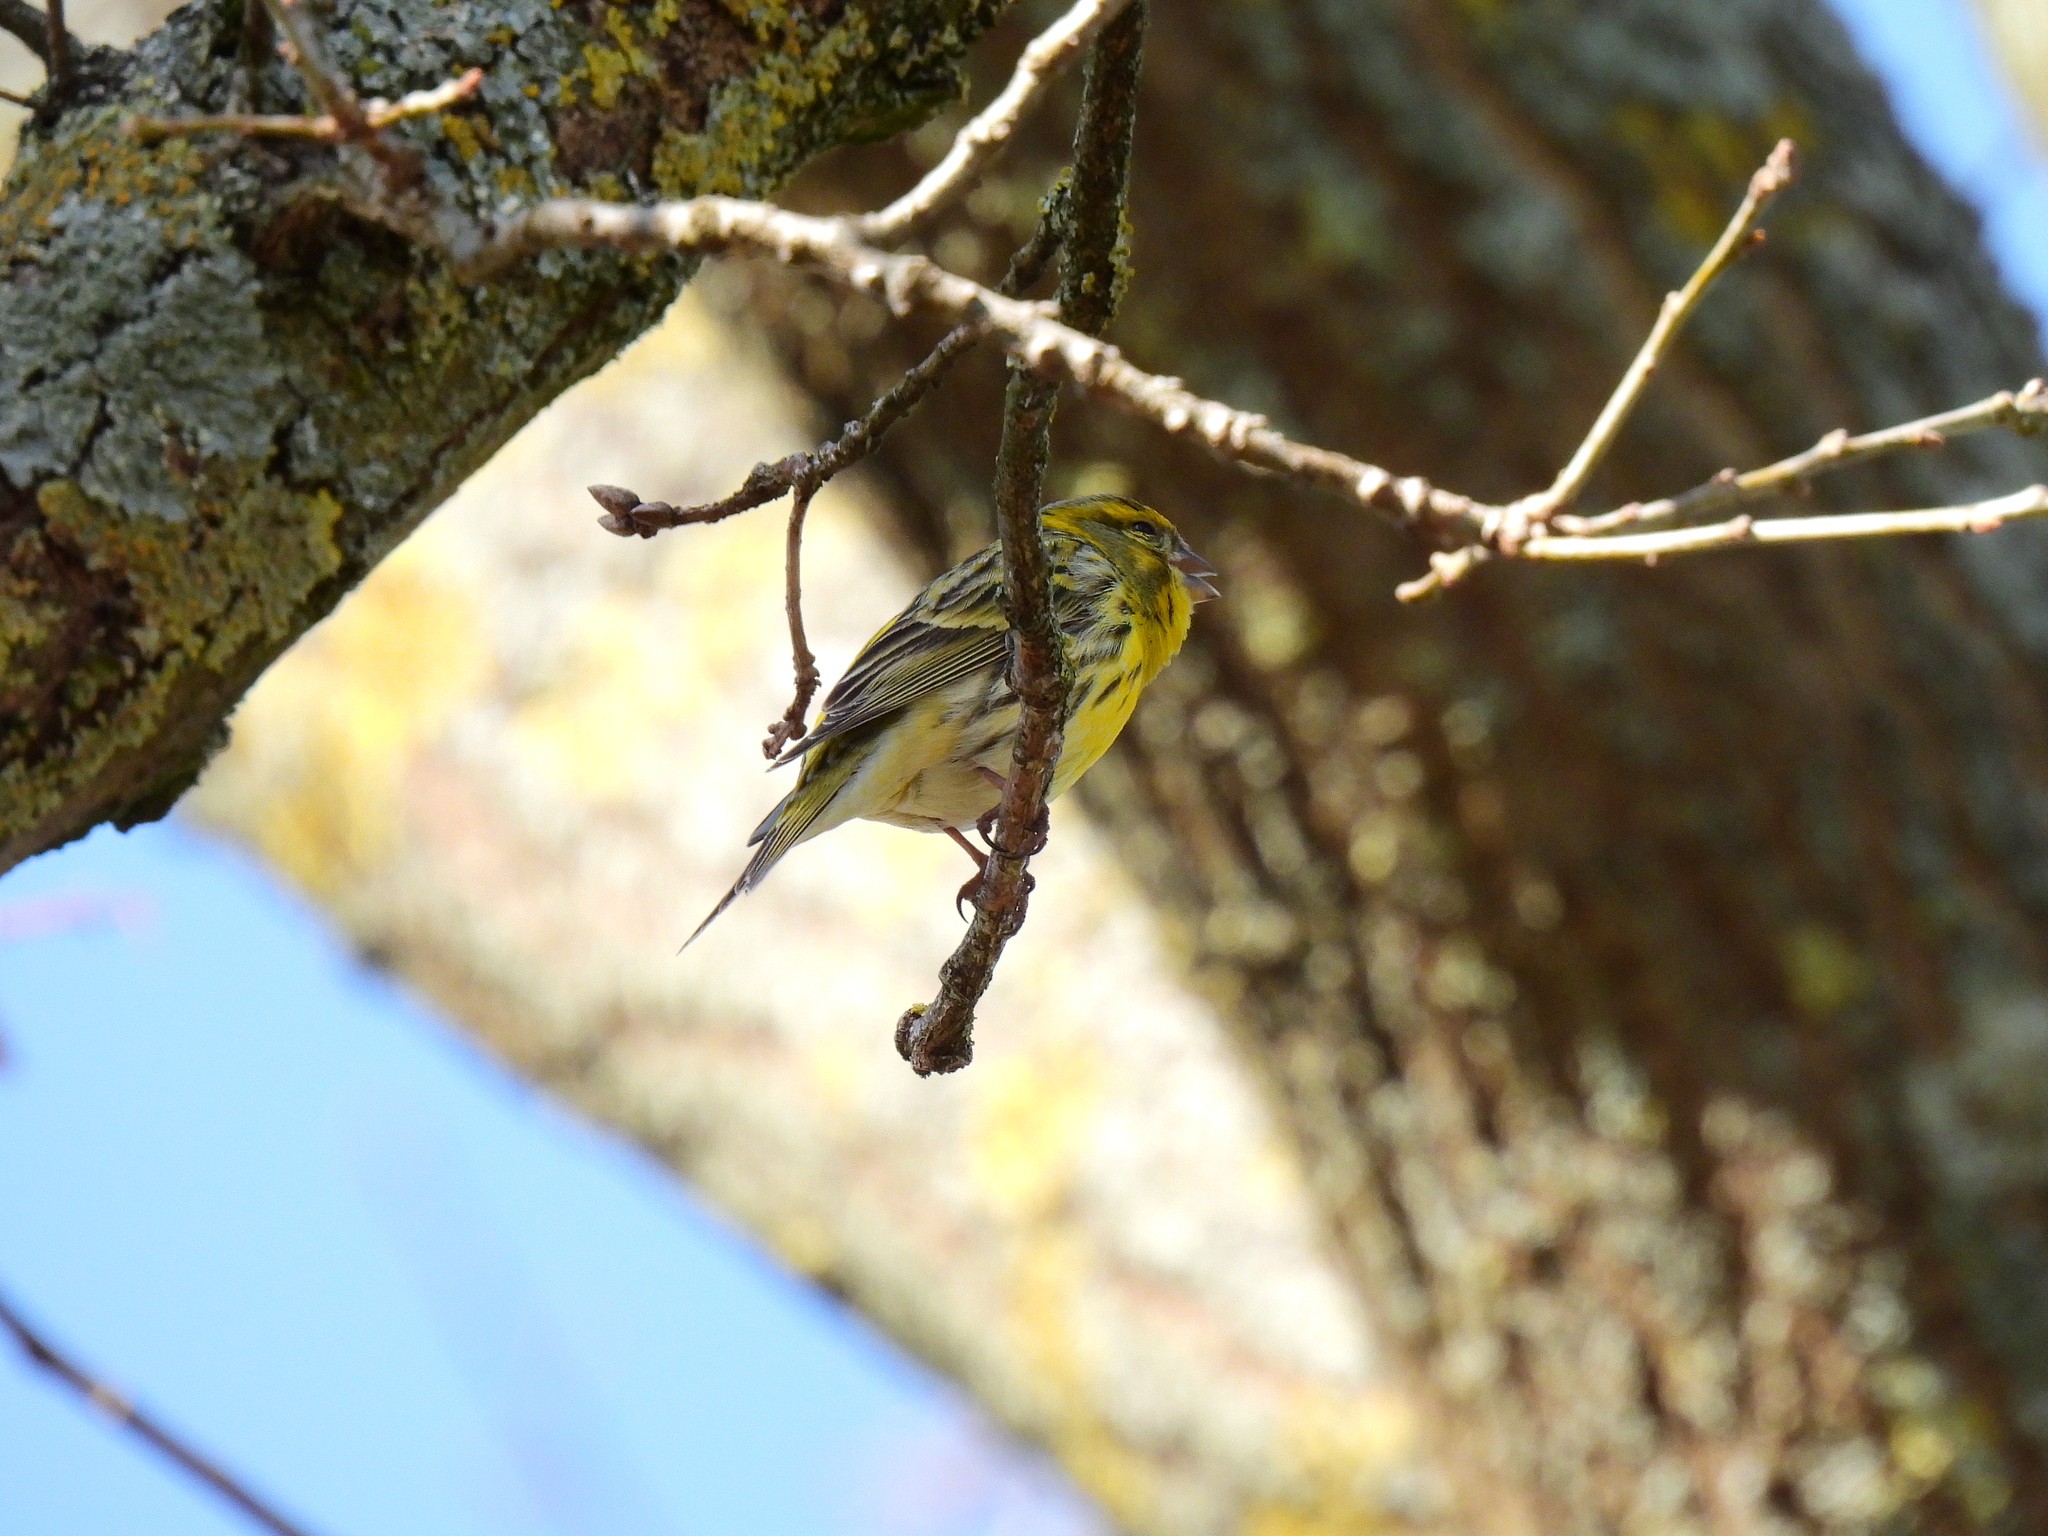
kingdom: Animalia
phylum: Chordata
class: Aves
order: Passeriformes
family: Fringillidae
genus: Serinus
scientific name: Serinus serinus
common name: European serin
